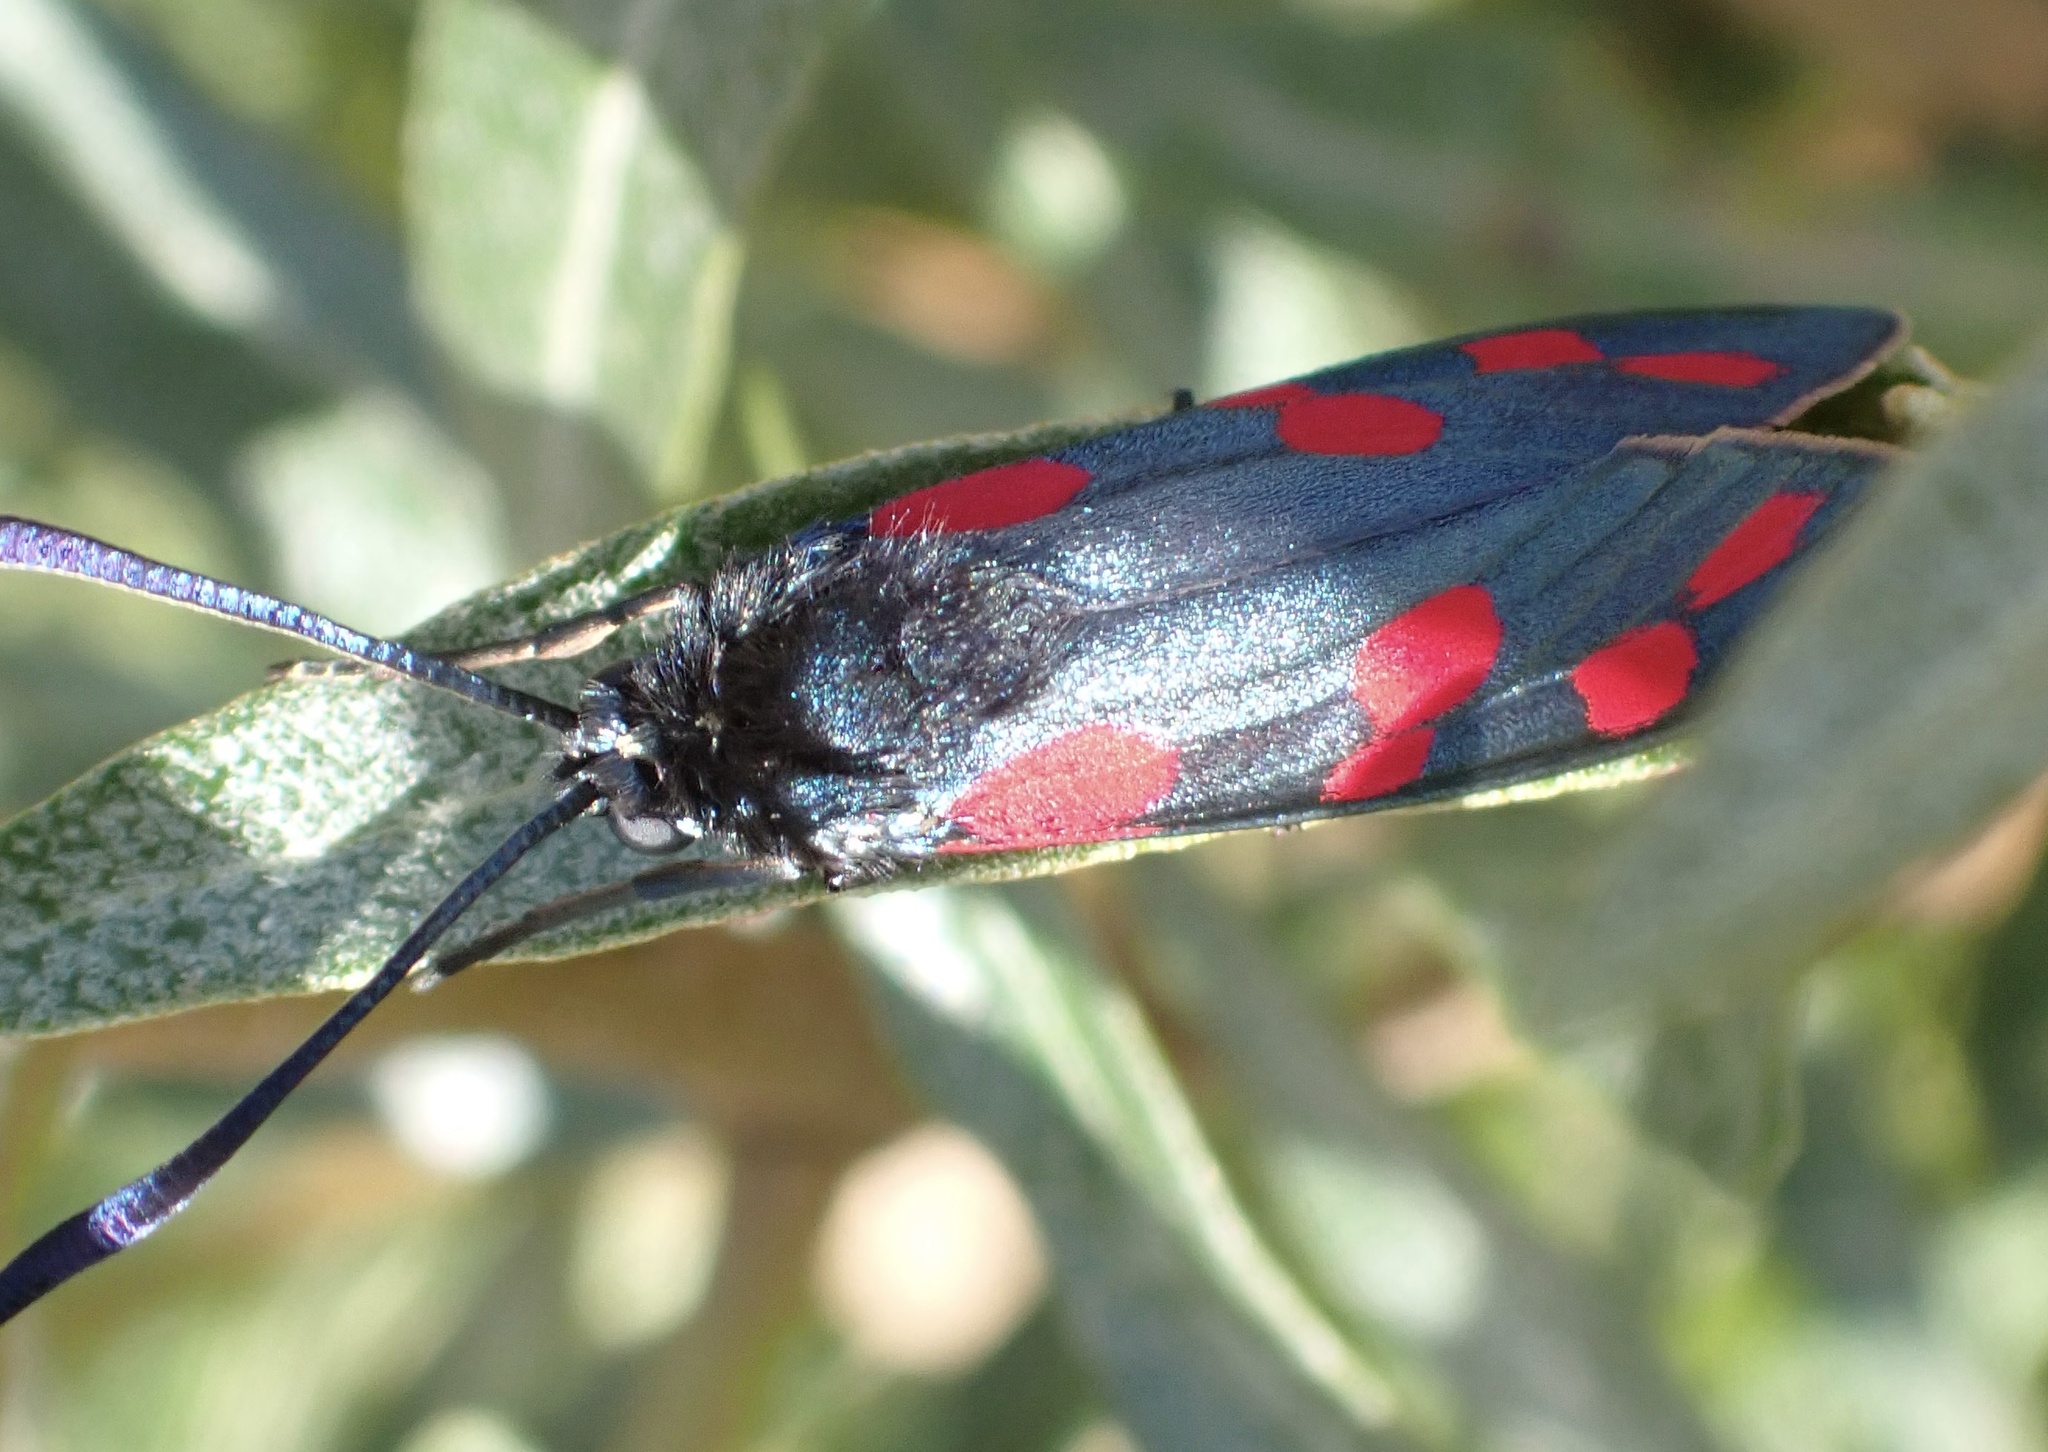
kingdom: Animalia
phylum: Arthropoda
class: Insecta
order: Lepidoptera
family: Zygaenidae
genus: Zygaena
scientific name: Zygaena filipendulae
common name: Six-spot burnet
